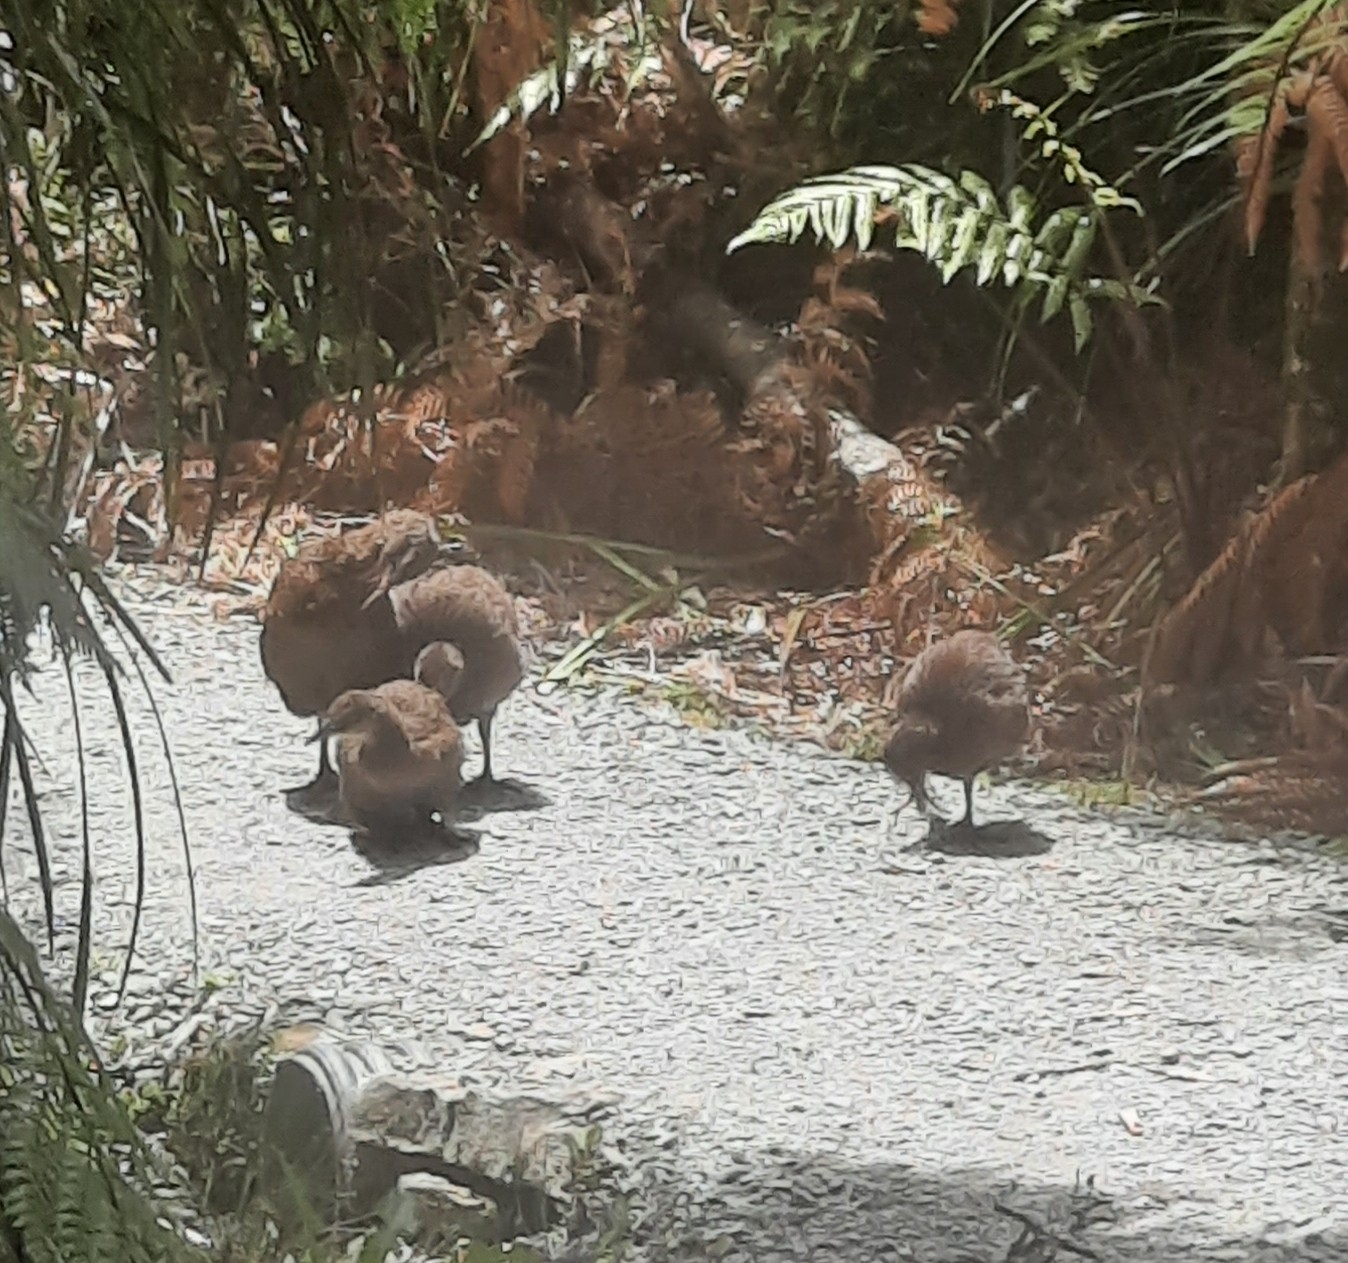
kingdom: Animalia
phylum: Chordata
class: Aves
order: Gruiformes
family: Rallidae
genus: Gallirallus
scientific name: Gallirallus australis
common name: Weka
